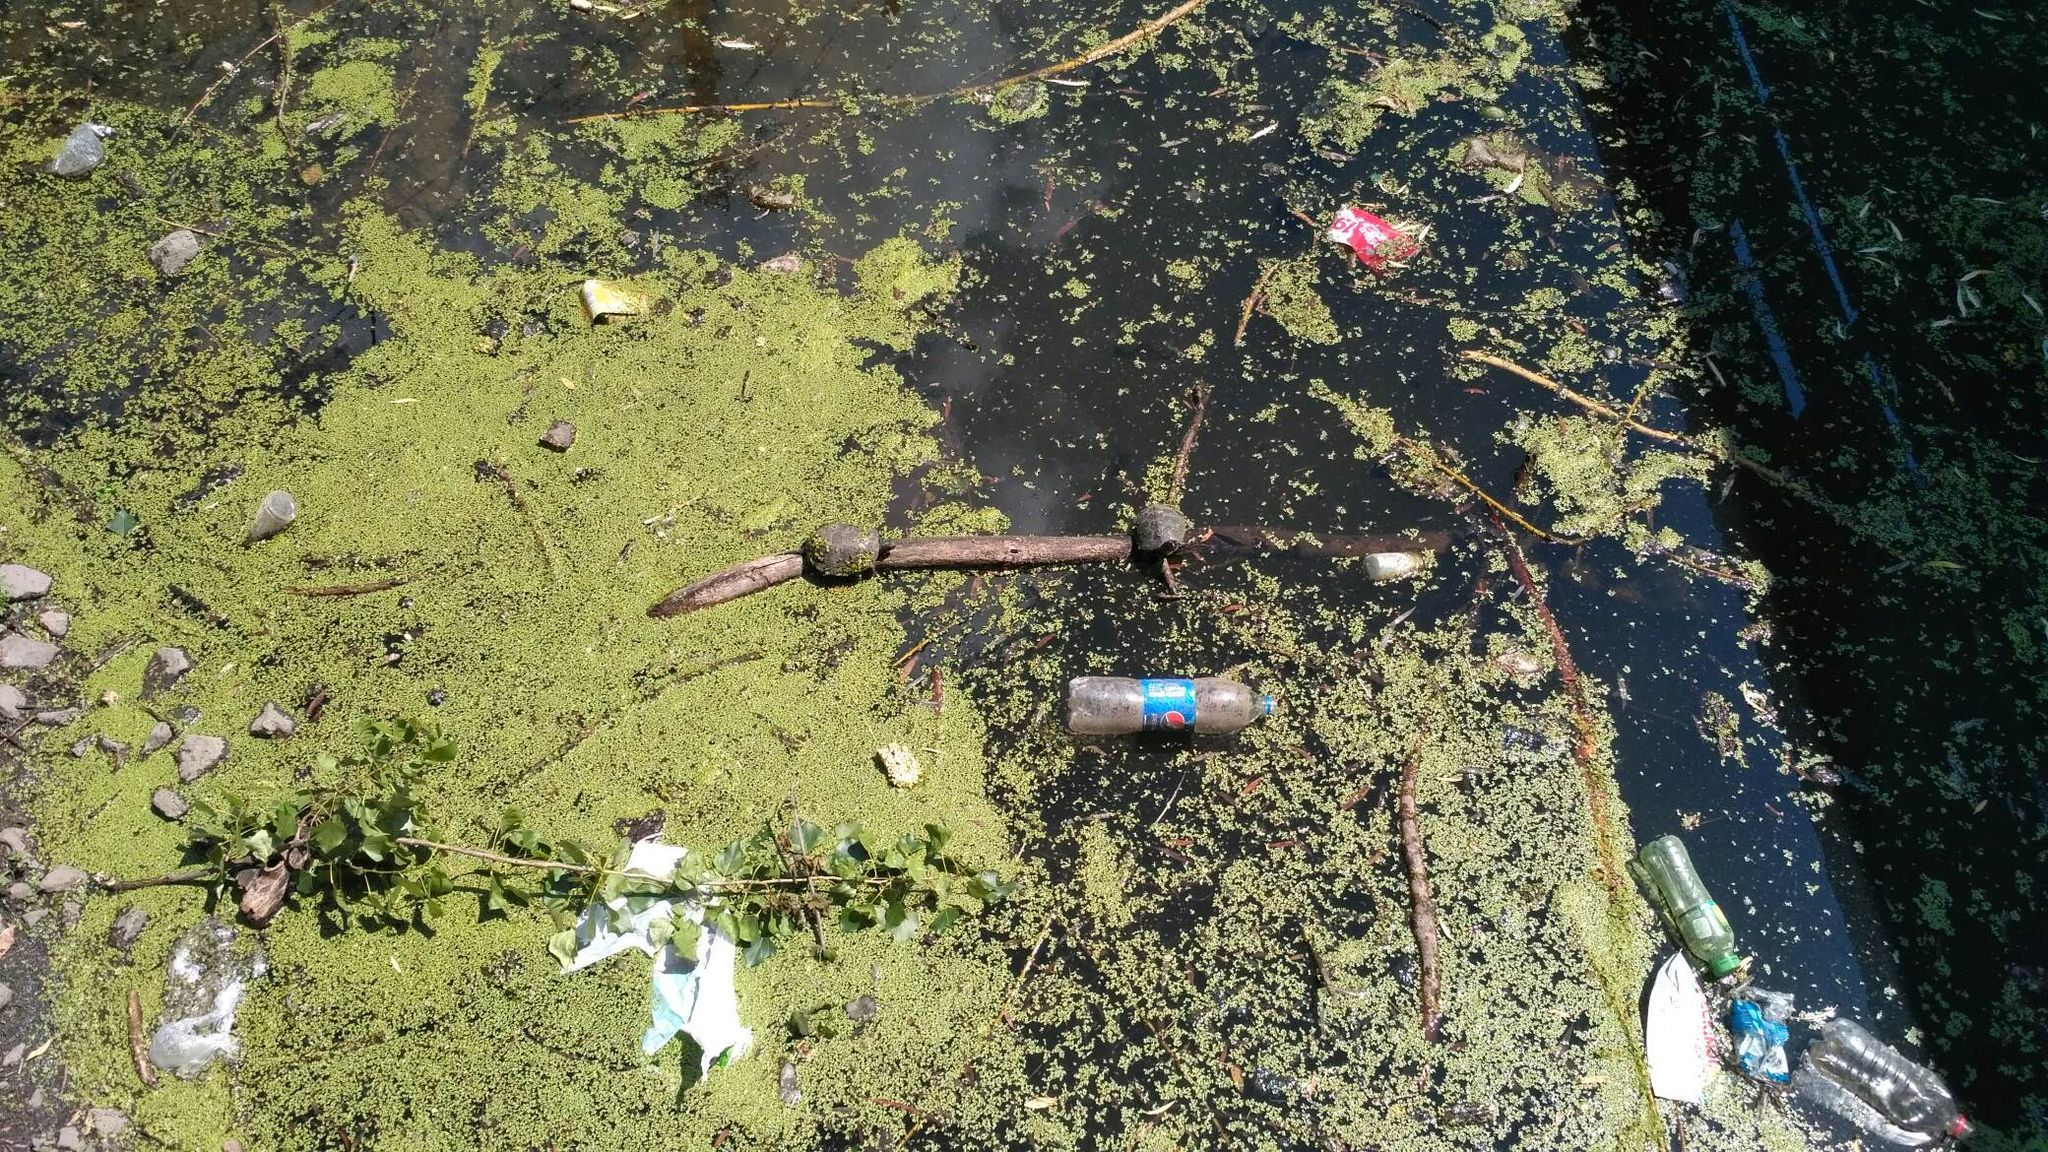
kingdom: Animalia
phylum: Chordata
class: Testudines
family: Emydidae
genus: Emys
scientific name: Emys orbicularis
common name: European pond turtle
